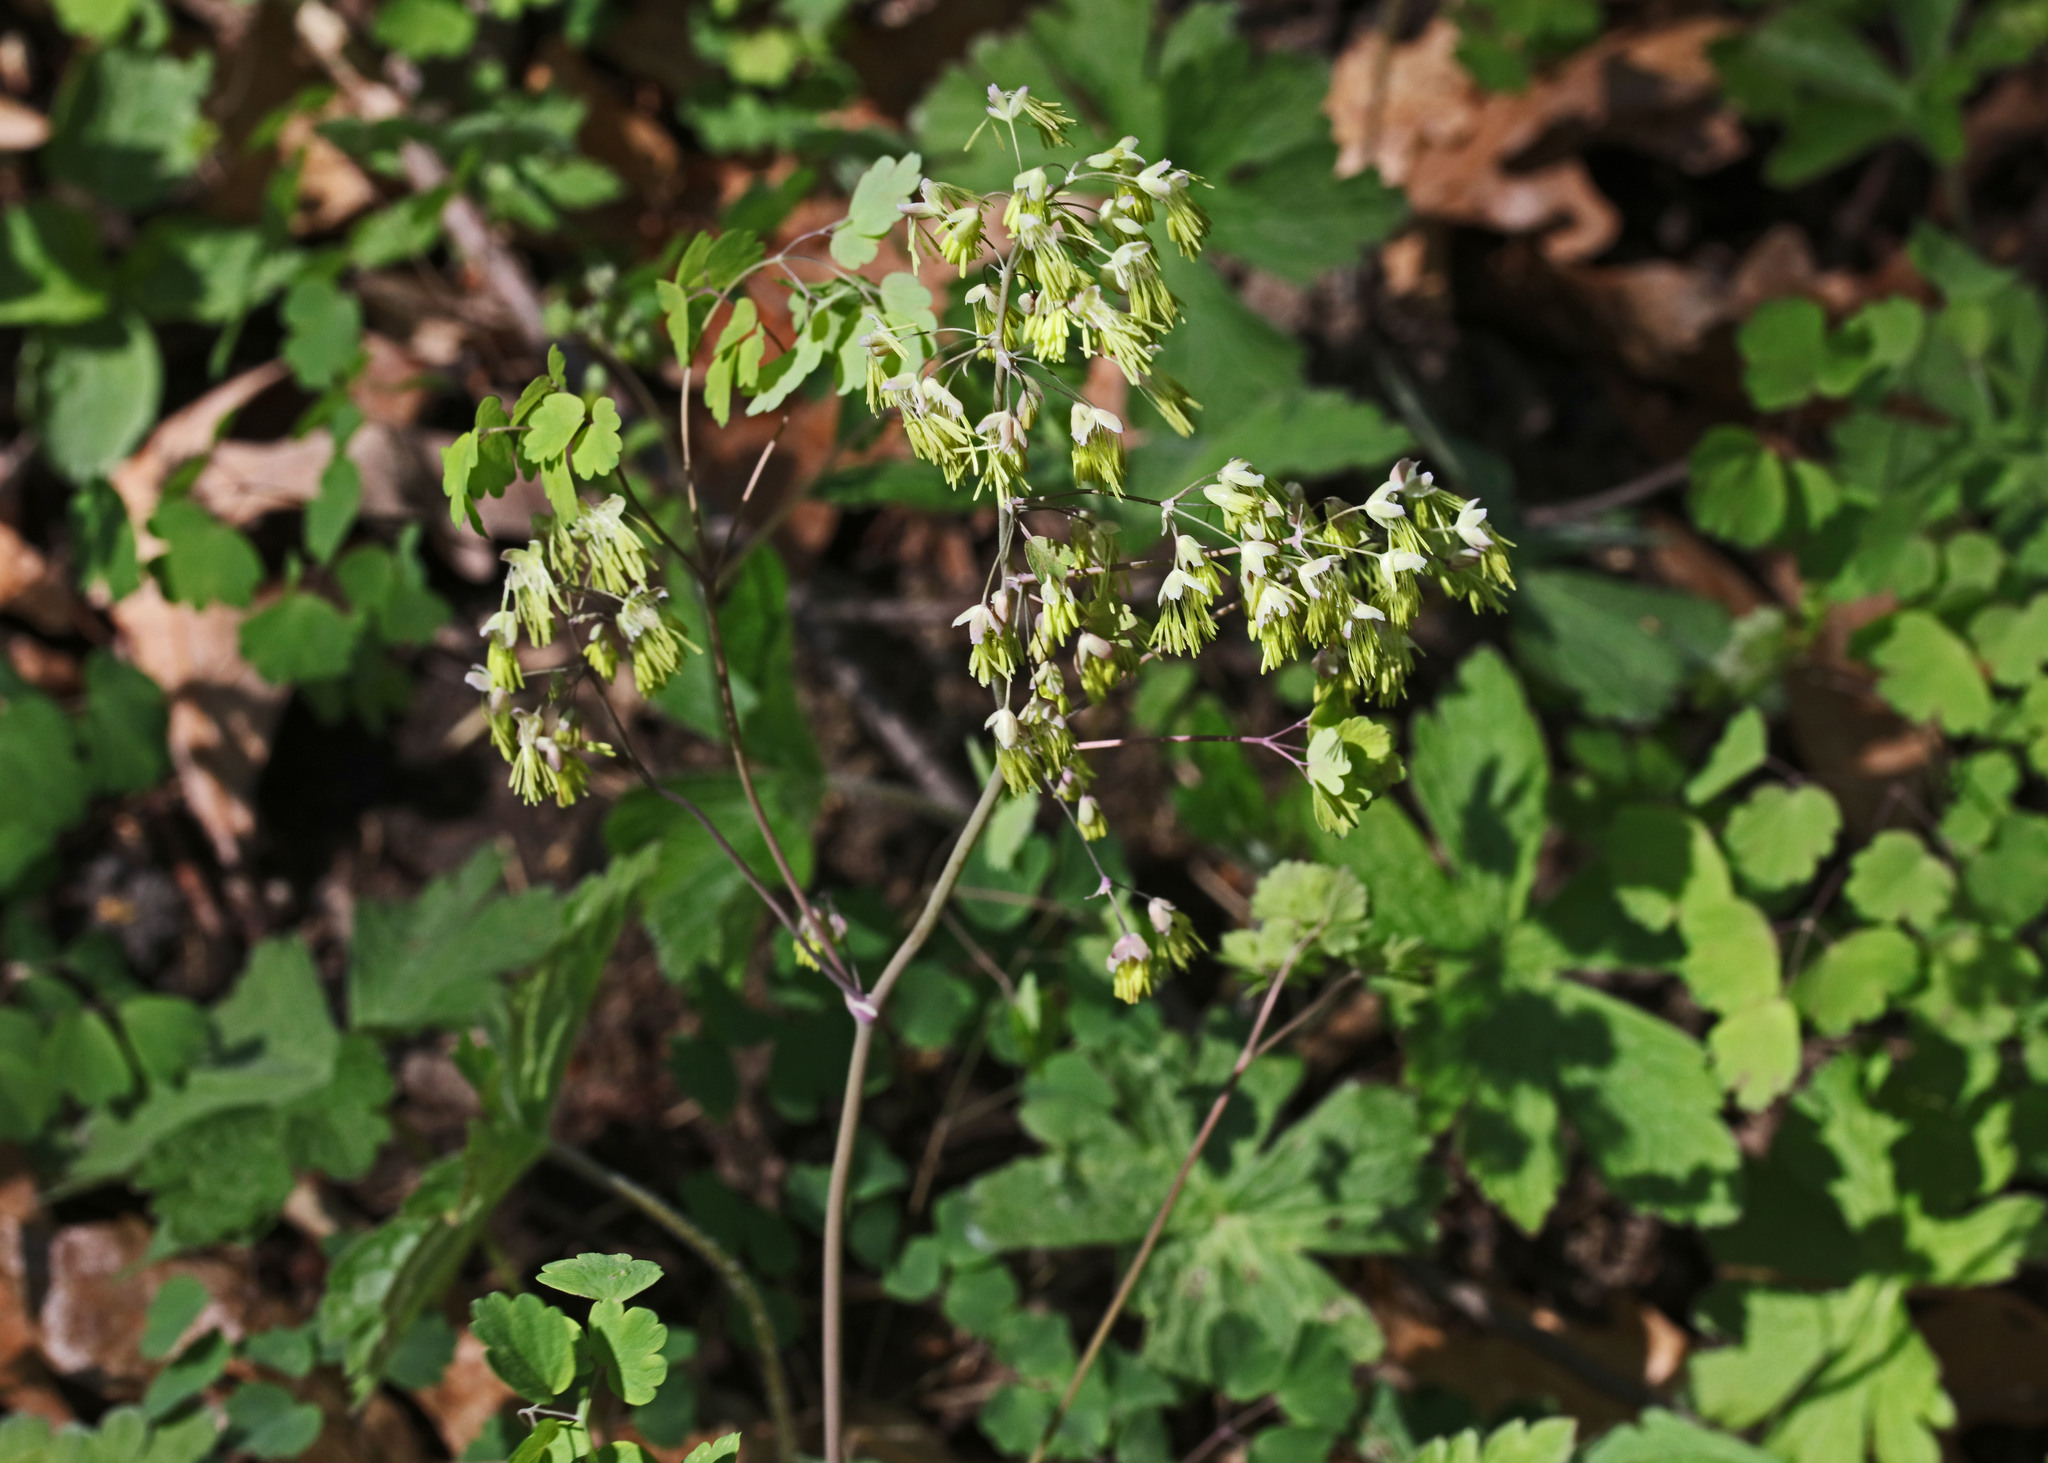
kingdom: Plantae
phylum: Tracheophyta
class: Magnoliopsida
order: Ranunculales
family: Ranunculaceae
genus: Thalictrum
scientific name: Thalictrum dioicum
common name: Early meadow-rue
